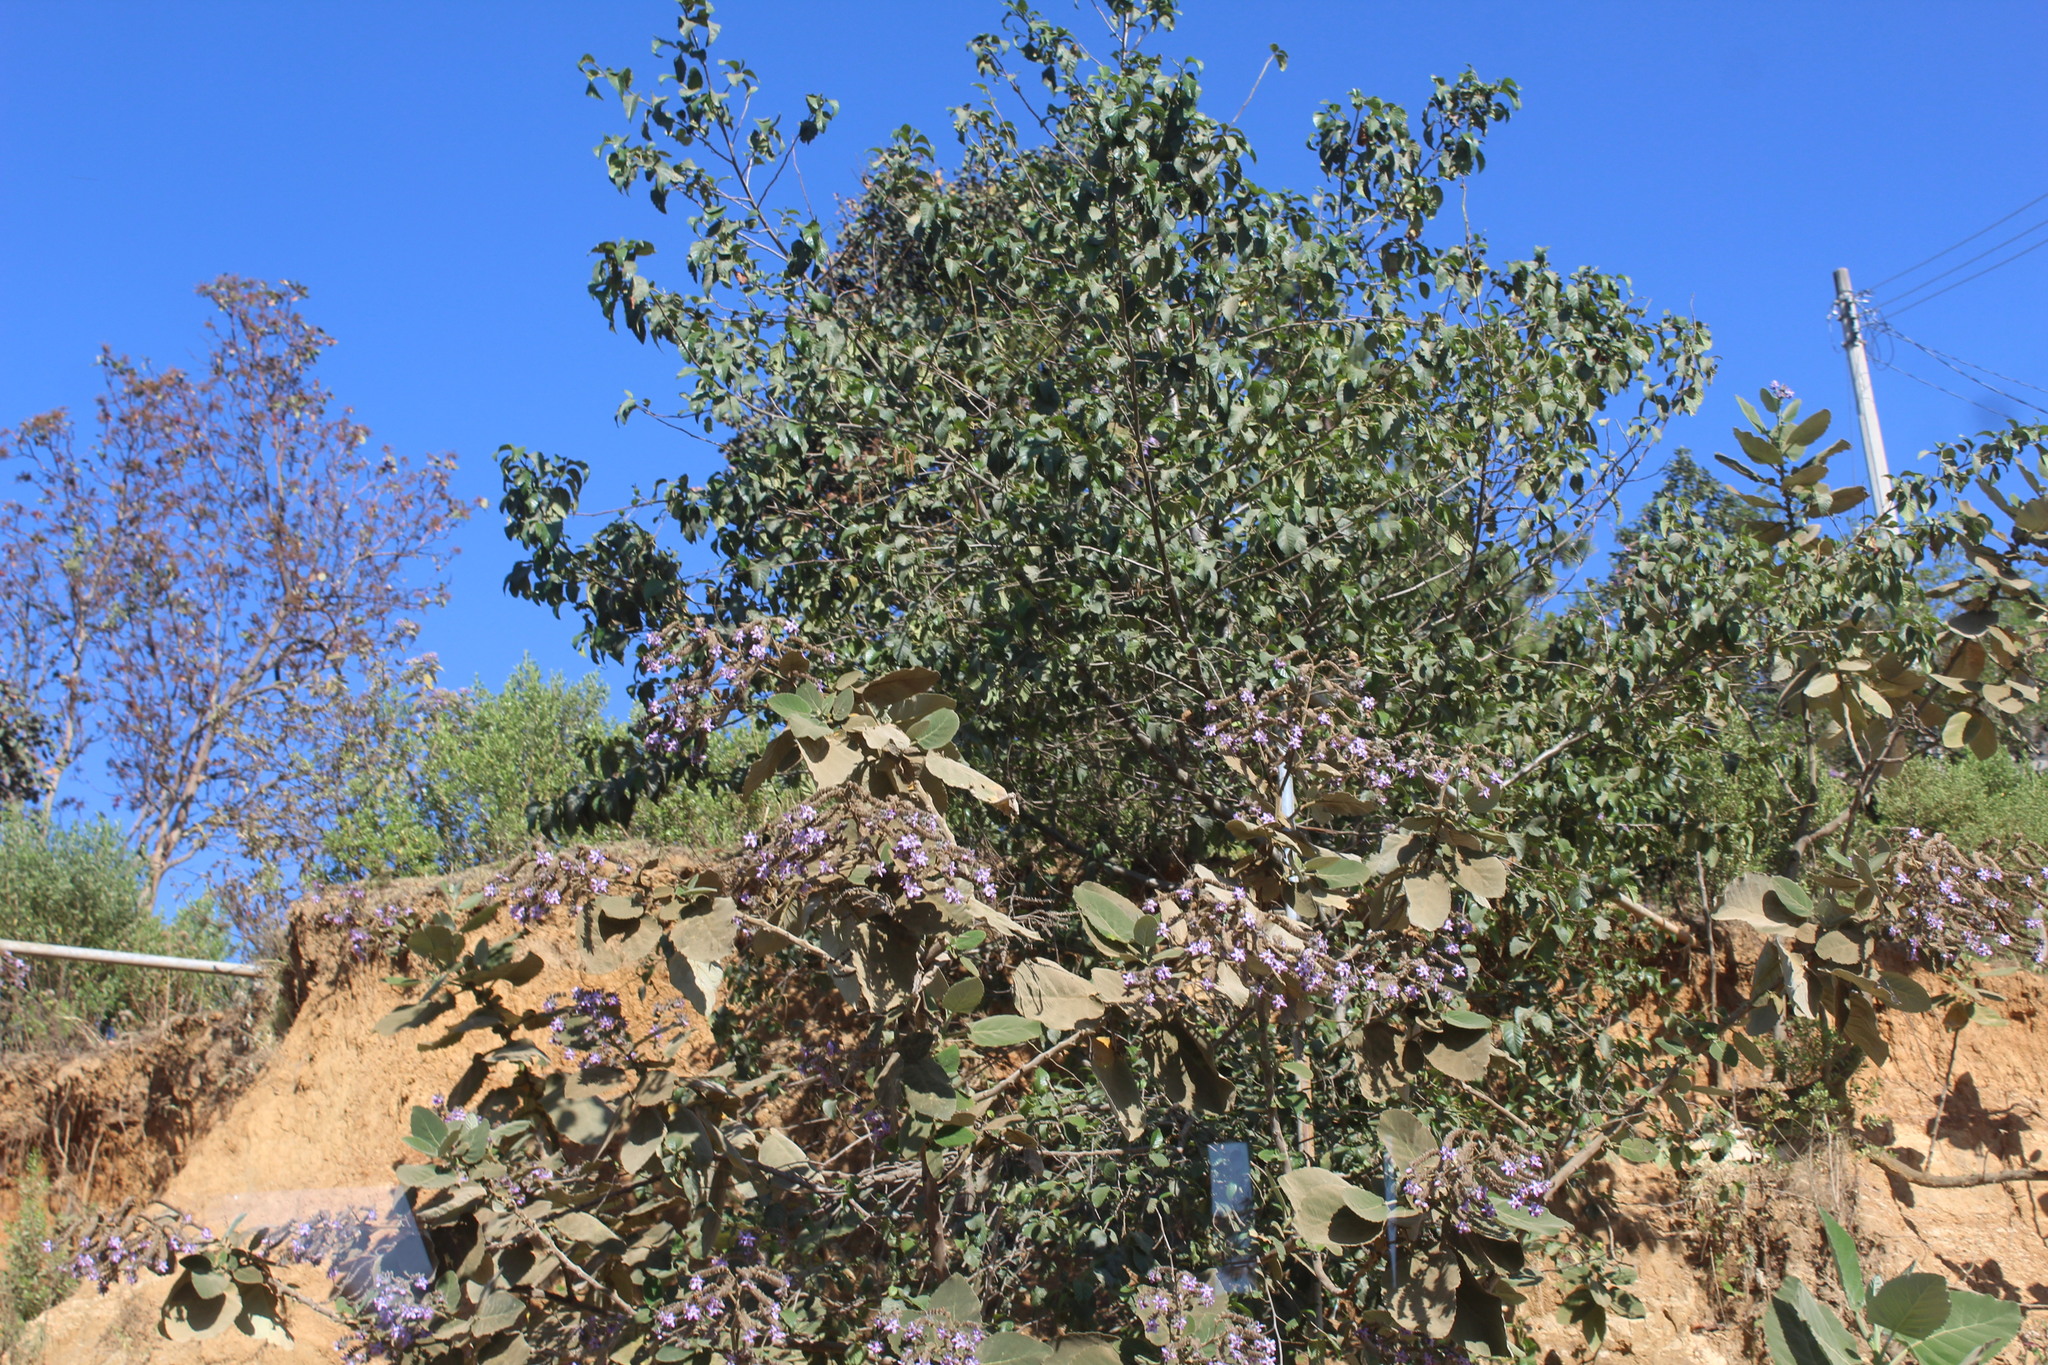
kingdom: Plantae
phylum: Tracheophyta
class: Magnoliopsida
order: Boraginales
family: Namaceae
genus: Wigandia
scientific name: Wigandia urens
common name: Caracus wigandia
